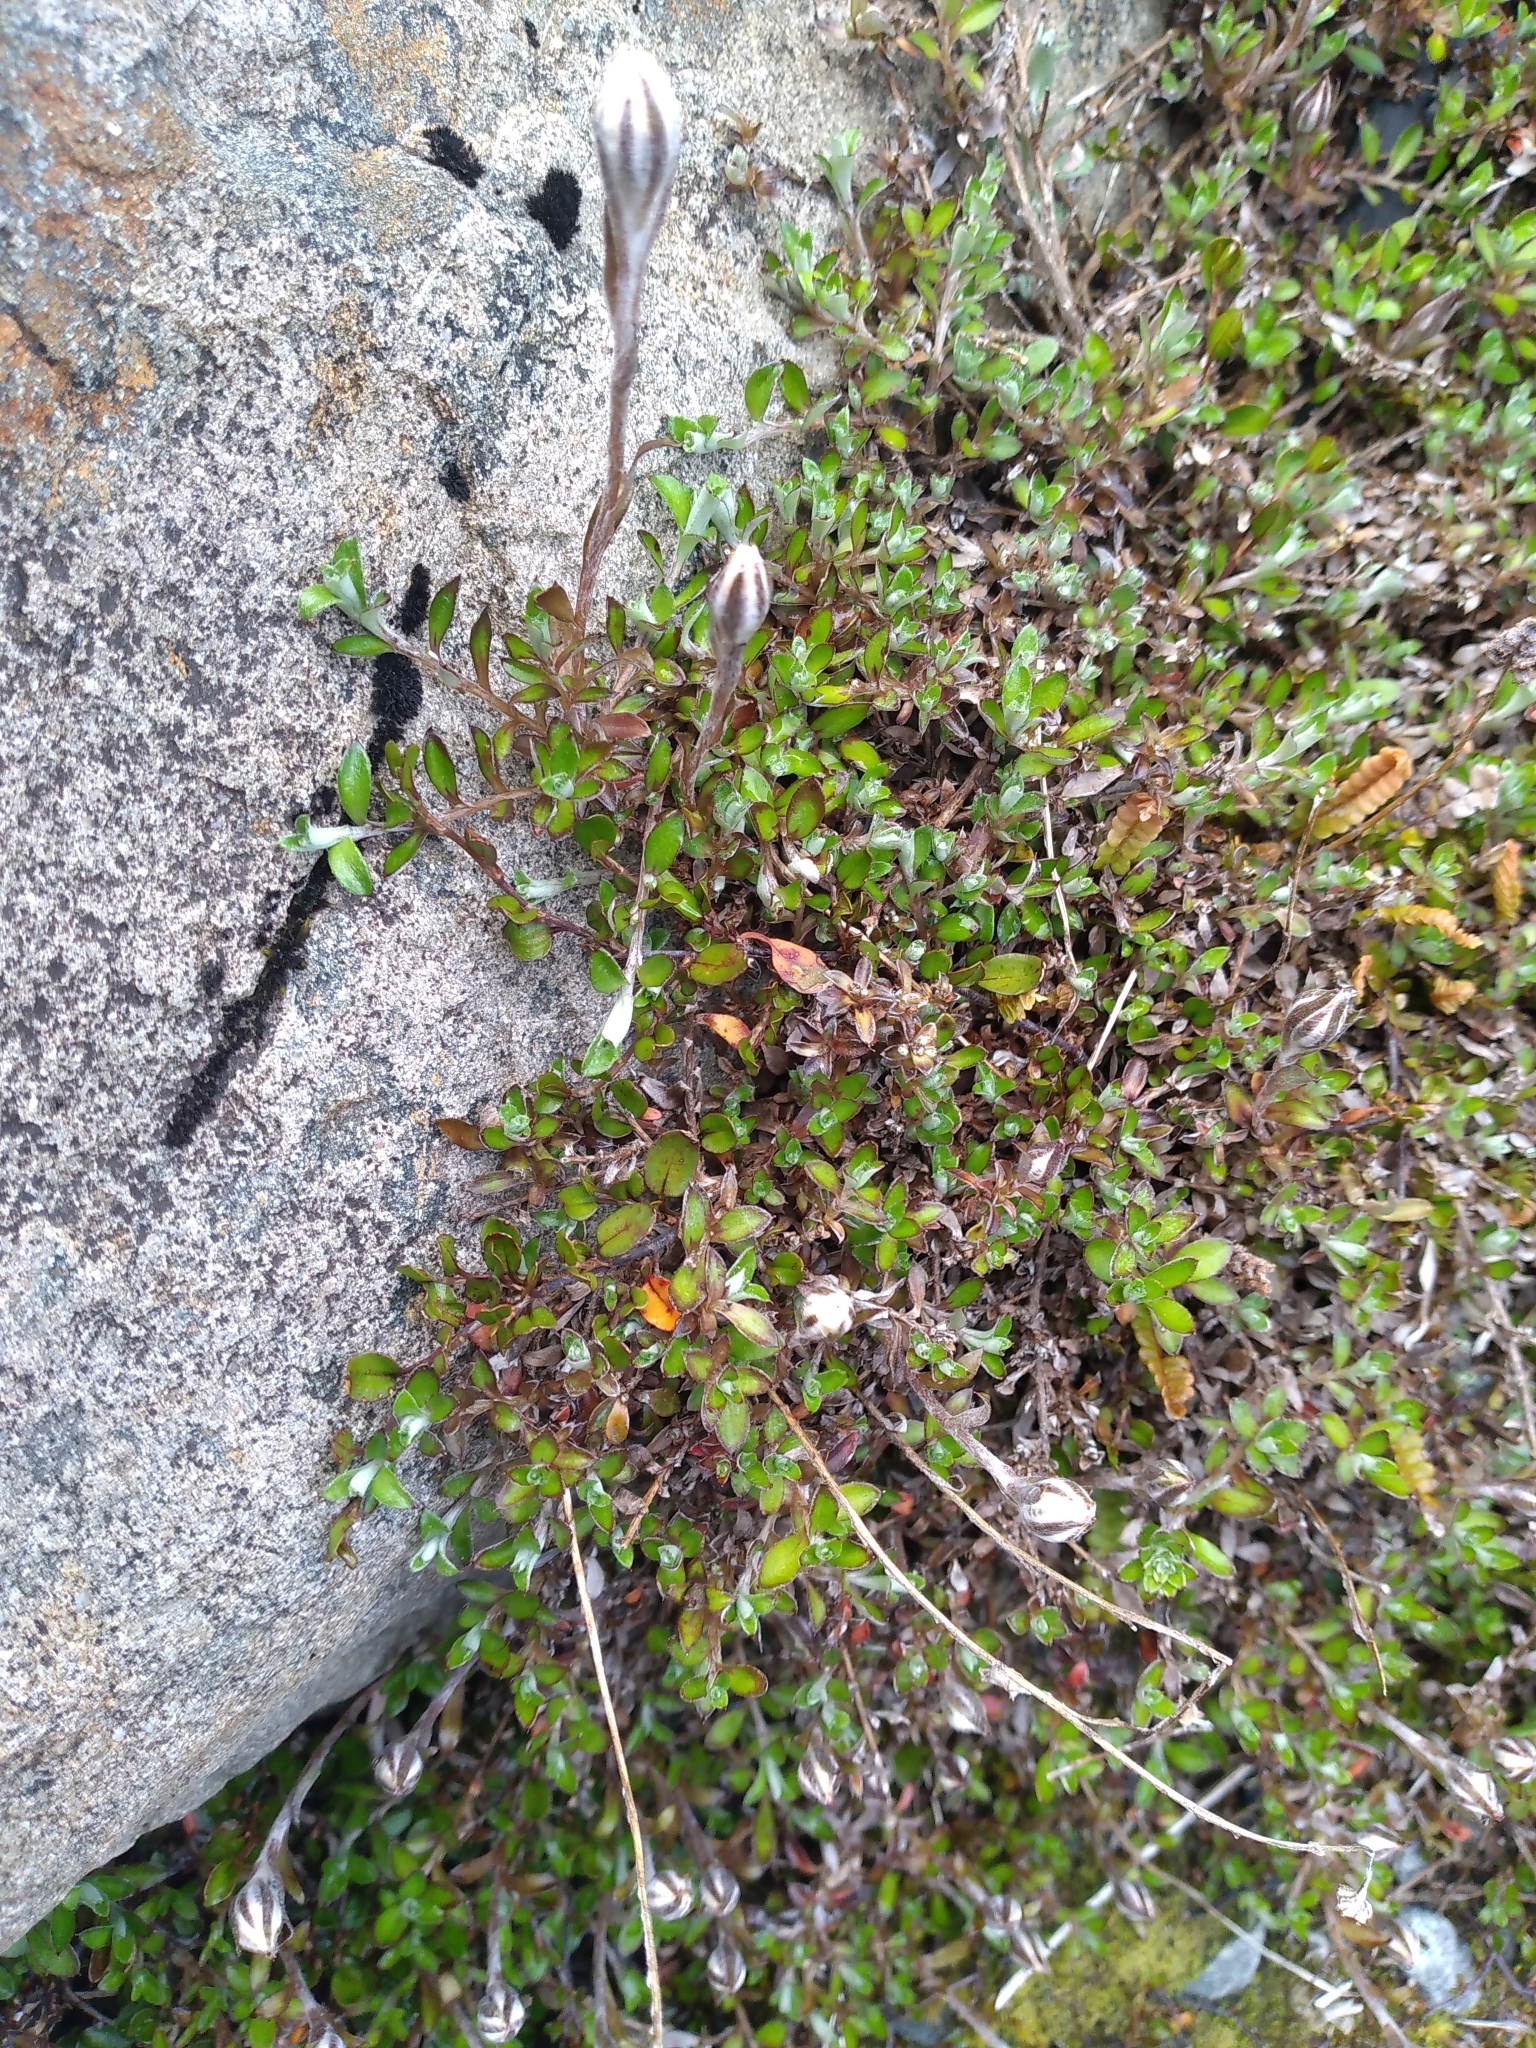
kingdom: Plantae
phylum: Tracheophyta
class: Magnoliopsida
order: Asterales
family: Asteraceae
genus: Anaphalioides
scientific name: Anaphalioides bellidioides
